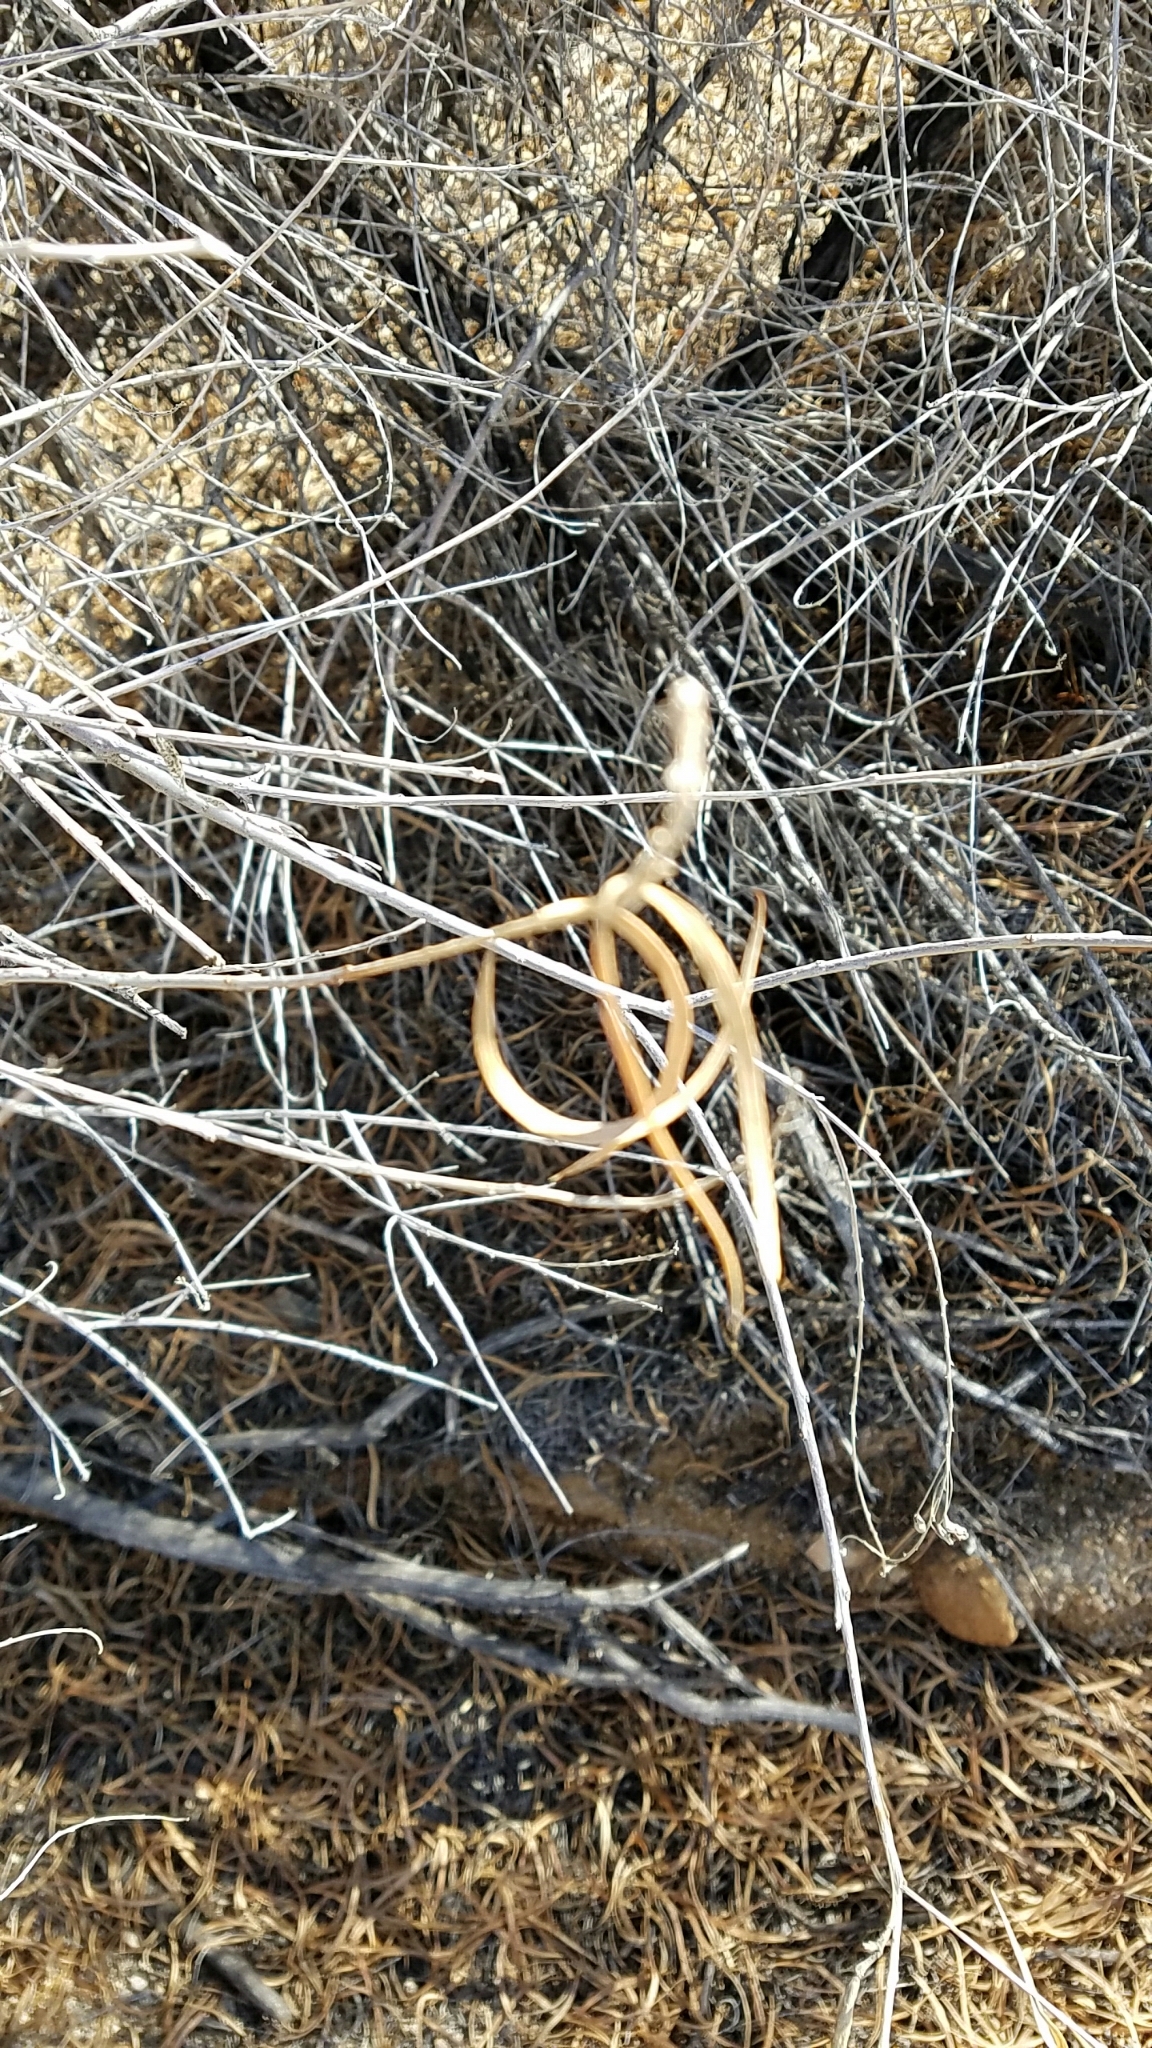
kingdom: Plantae
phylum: Tracheophyta
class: Magnoliopsida
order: Lamiales
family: Bignoniaceae
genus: Chilopsis
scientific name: Chilopsis linearis
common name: Desert-willow
